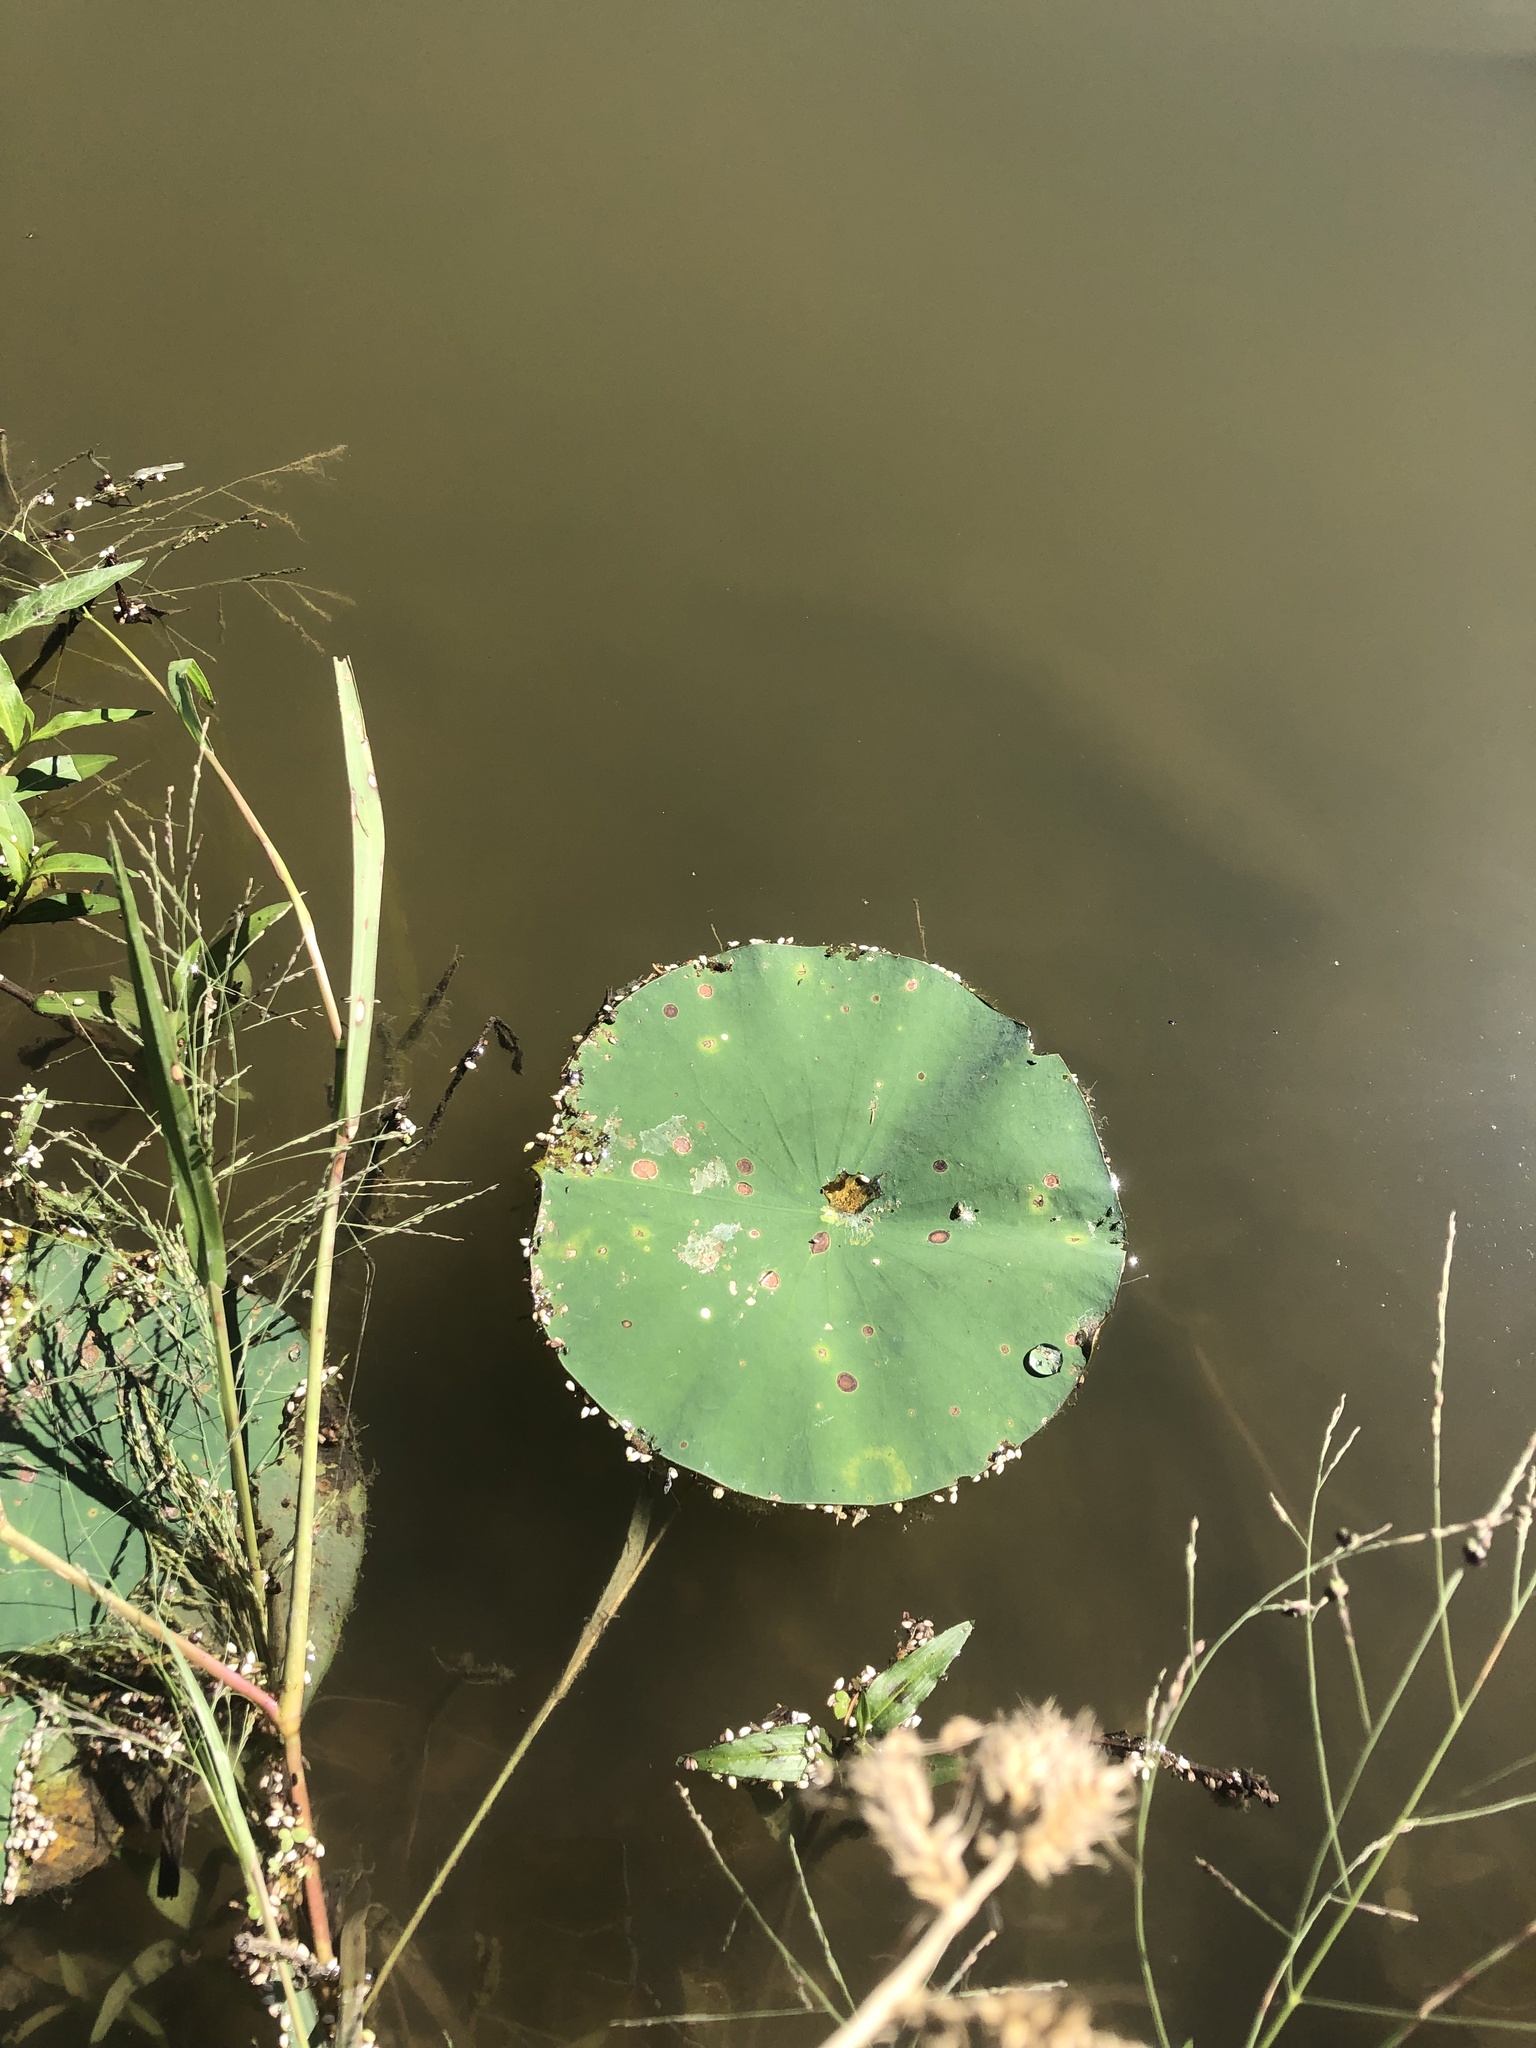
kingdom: Plantae
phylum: Tracheophyta
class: Magnoliopsida
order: Proteales
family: Nelumbonaceae
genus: Nelumbo
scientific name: Nelumbo lutea
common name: American lotus
